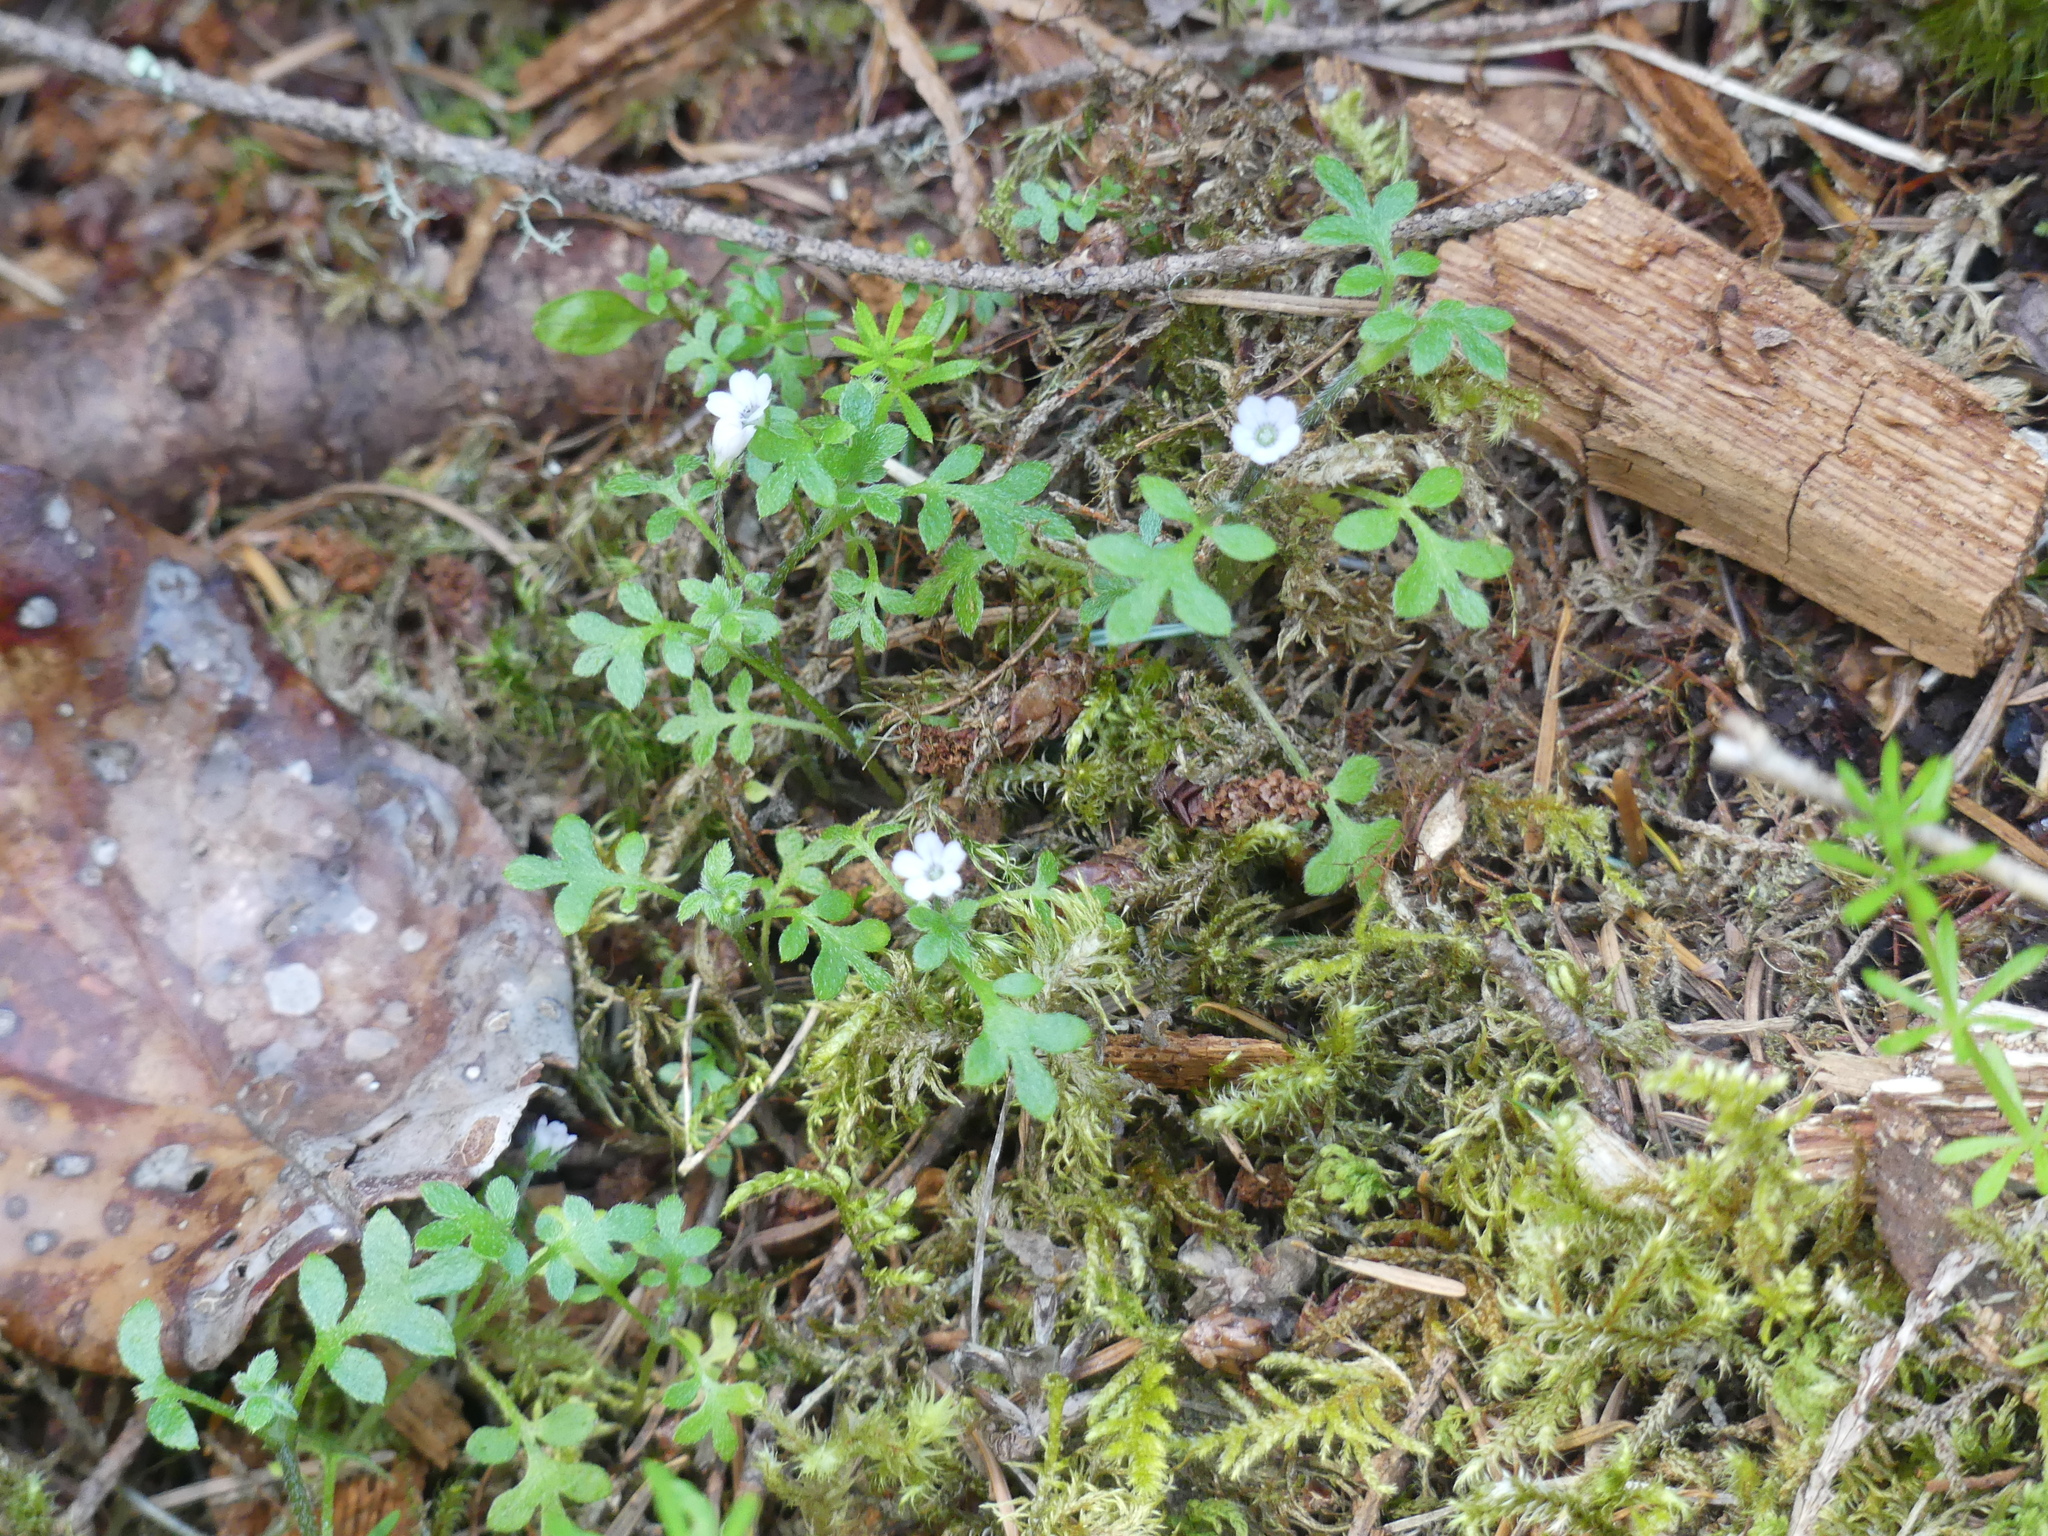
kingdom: Plantae
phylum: Tracheophyta
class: Magnoliopsida
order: Boraginales
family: Hydrophyllaceae
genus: Nemophila
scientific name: Nemophila parviflora
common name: Small-flowered baby-blue-eyes
